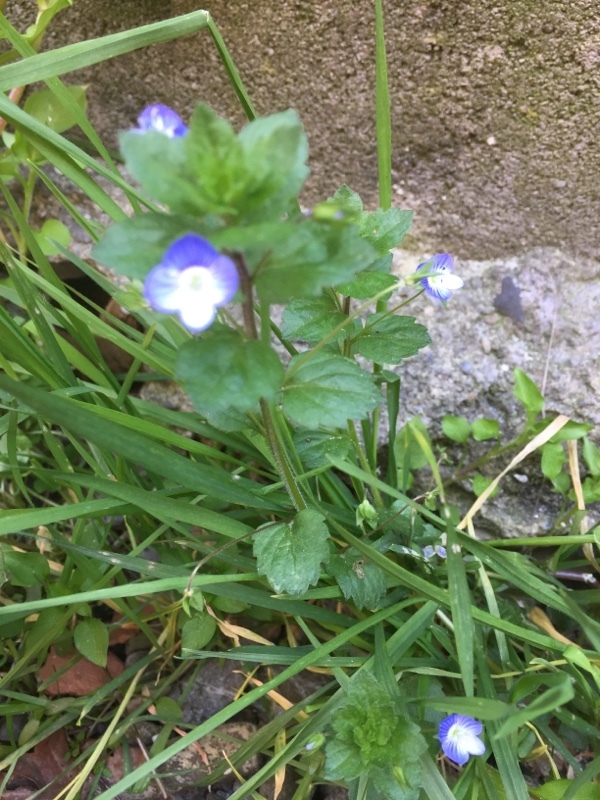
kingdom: Plantae
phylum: Tracheophyta
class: Magnoliopsida
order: Lamiales
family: Plantaginaceae
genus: Veronica
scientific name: Veronica persica
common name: Common field-speedwell
